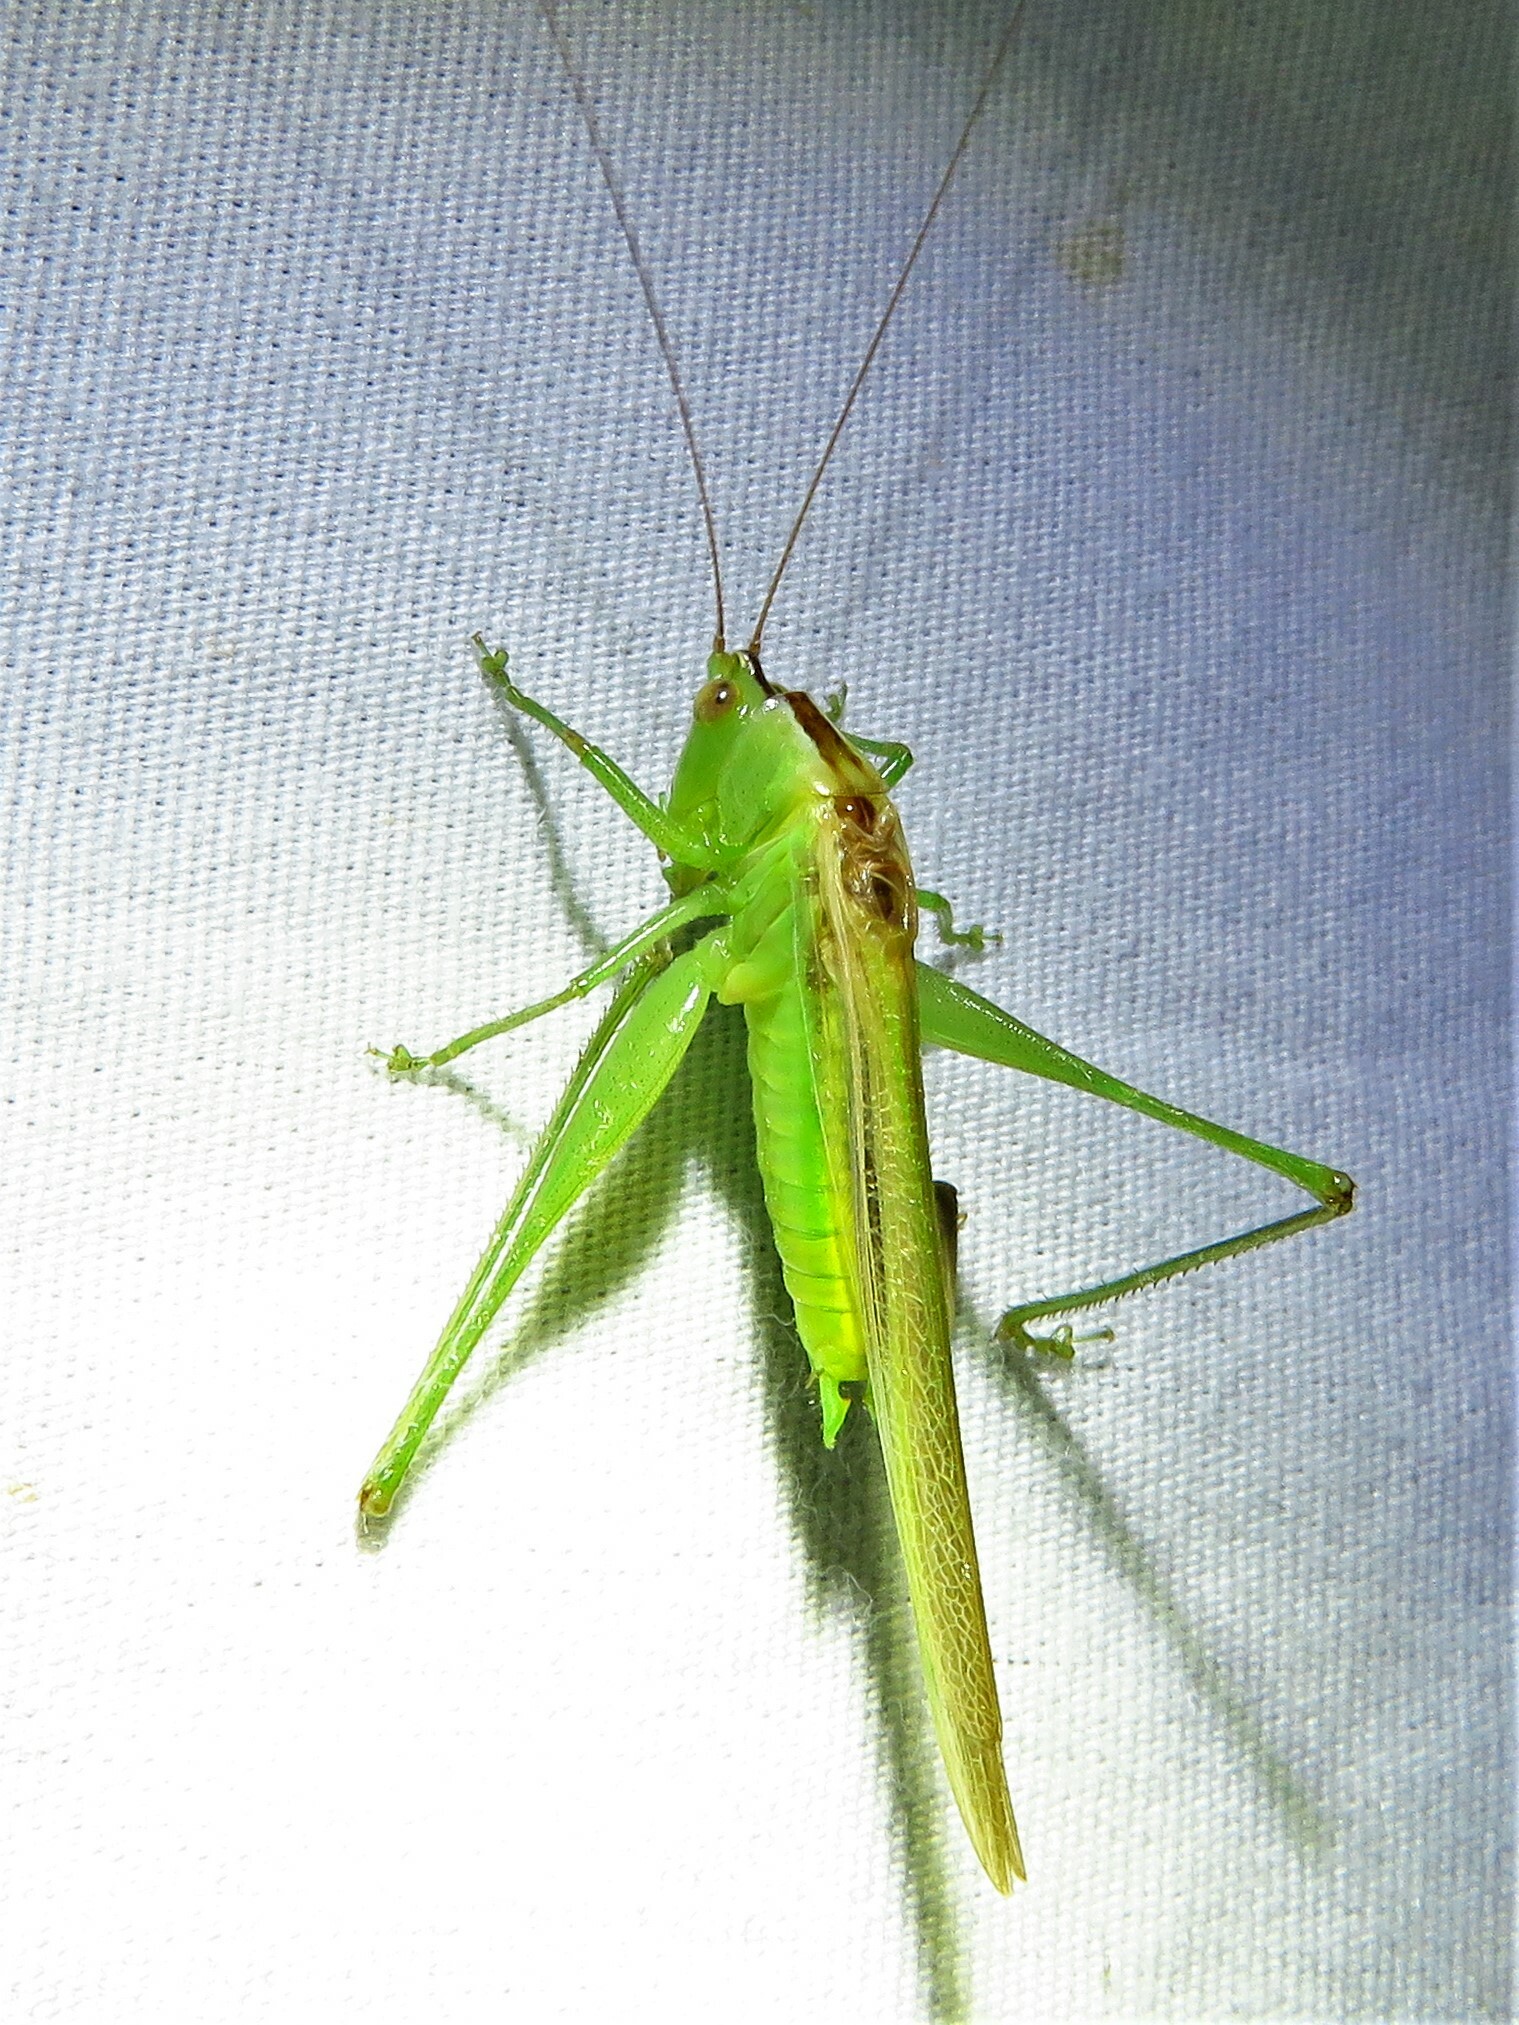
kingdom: Animalia
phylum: Arthropoda
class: Insecta
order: Orthoptera
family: Tettigoniidae
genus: Conocephalus
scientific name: Conocephalus fasciatus
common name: Slender meadow katydid
